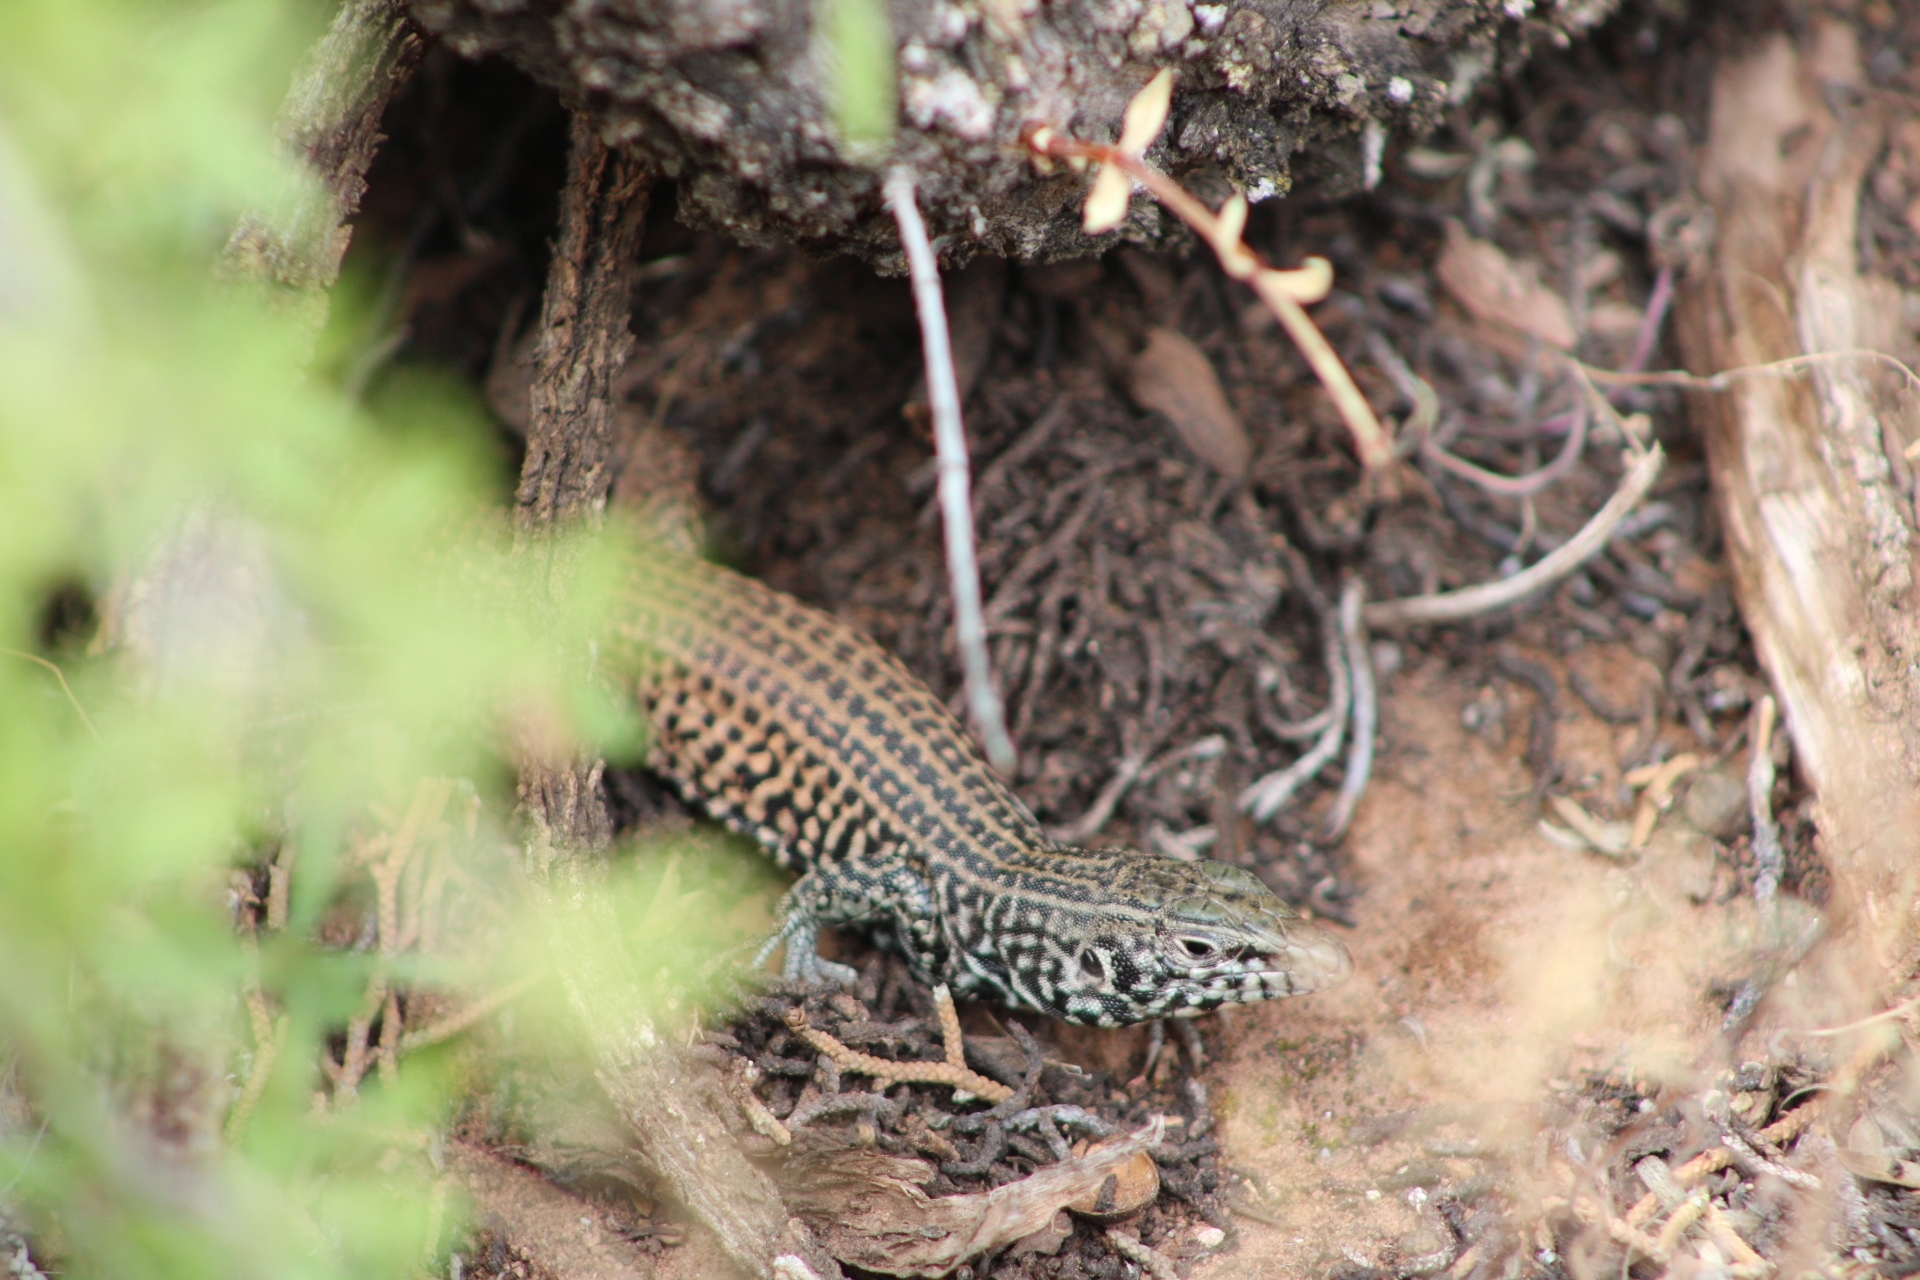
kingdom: Animalia
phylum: Chordata
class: Squamata
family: Teiidae
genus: Aspidoscelis
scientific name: Aspidoscelis tigris
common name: Tiger whiptail
